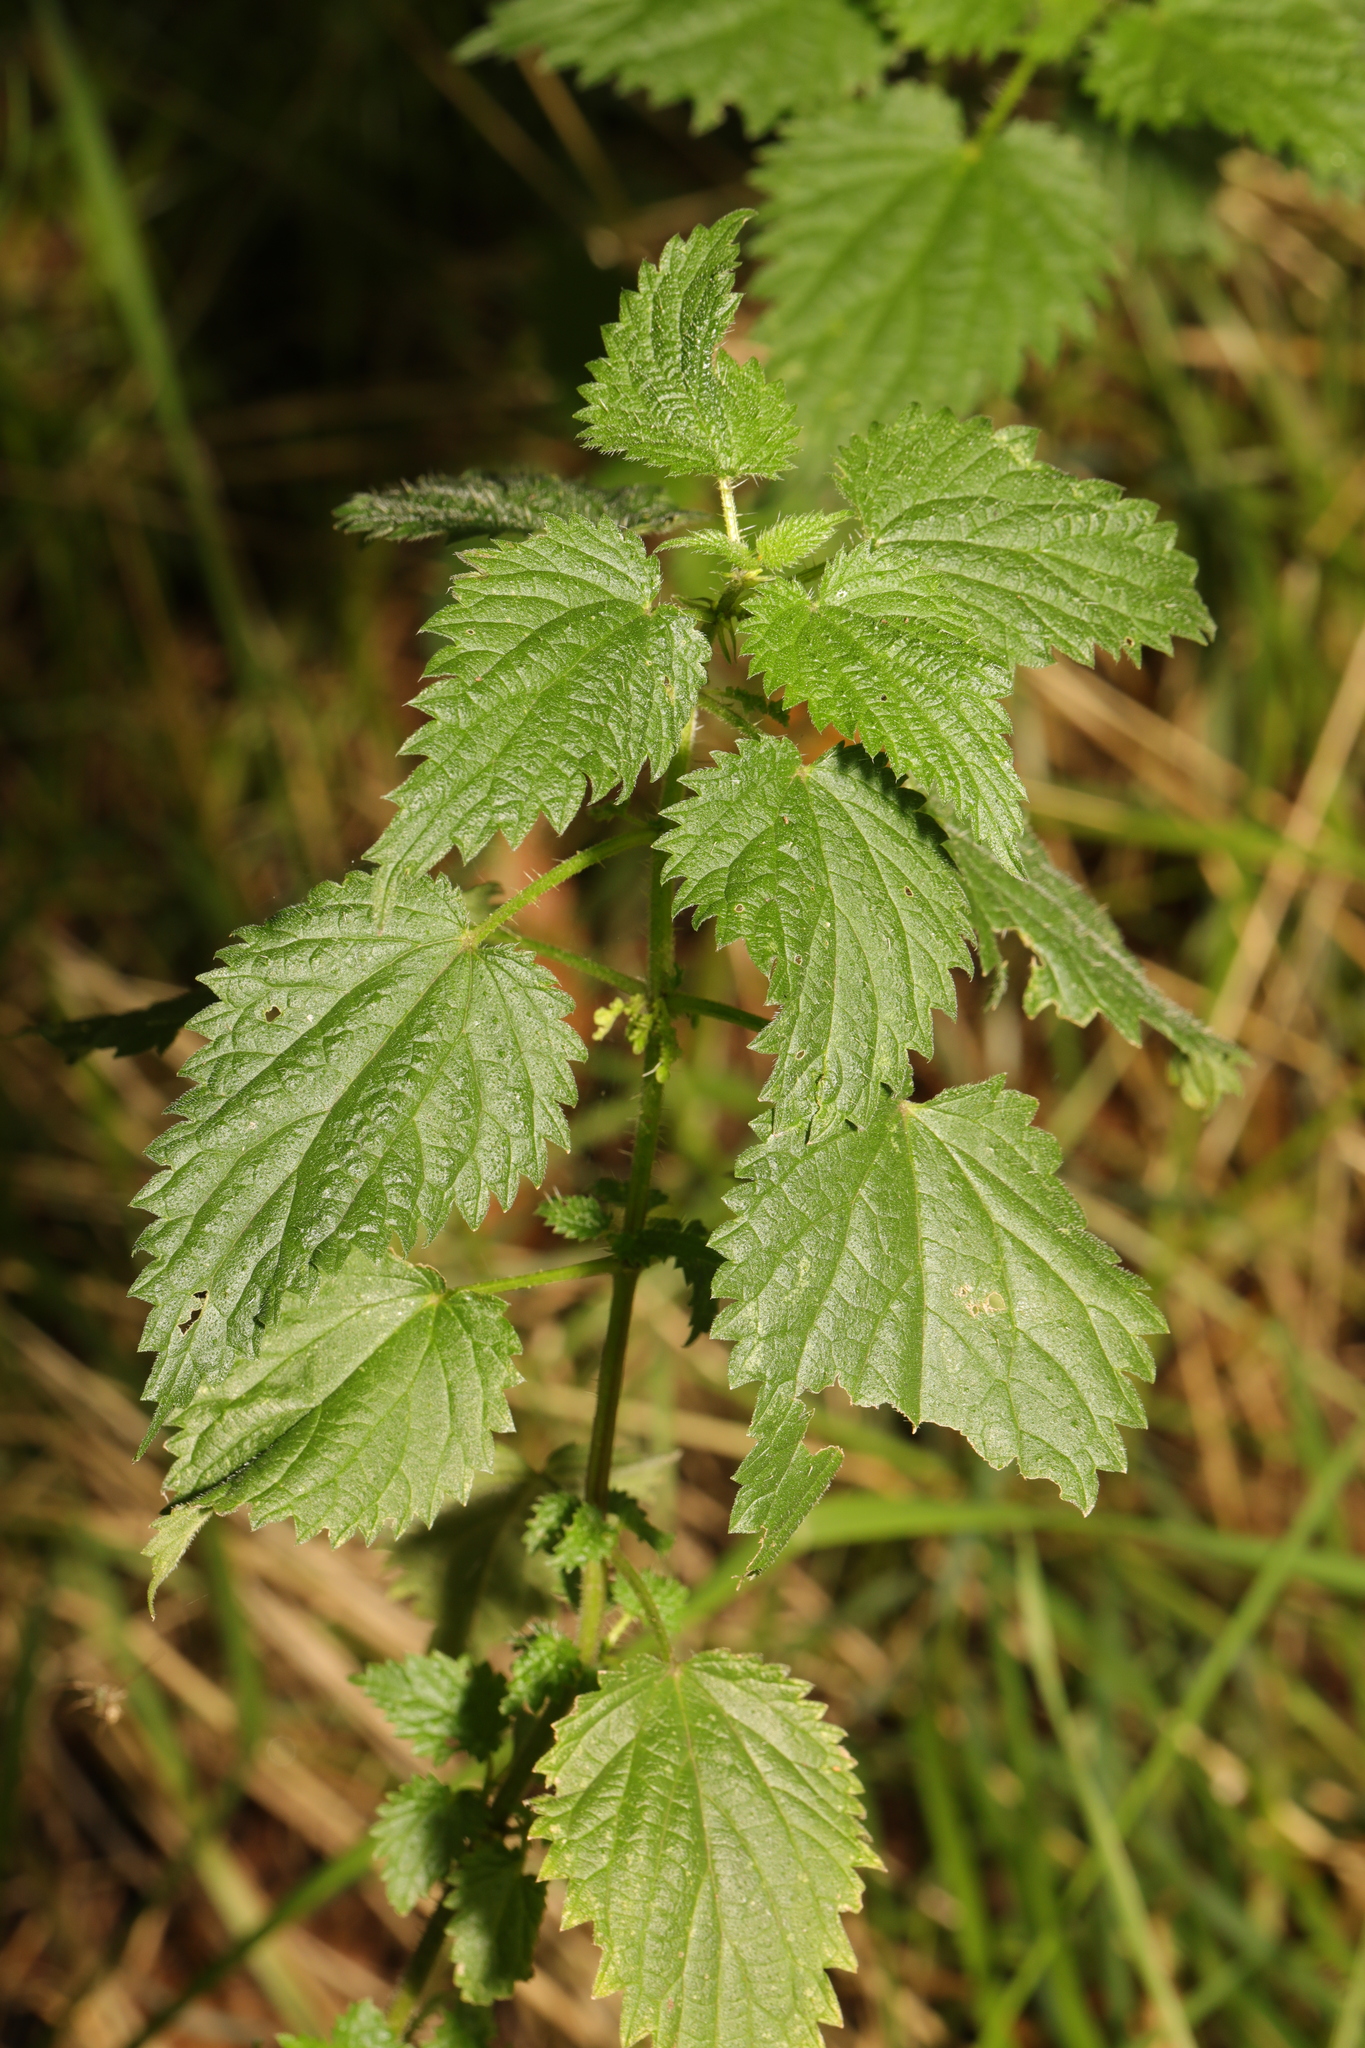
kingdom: Plantae
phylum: Tracheophyta
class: Magnoliopsida
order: Rosales
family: Urticaceae
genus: Urtica
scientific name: Urtica dioica
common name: Common nettle
